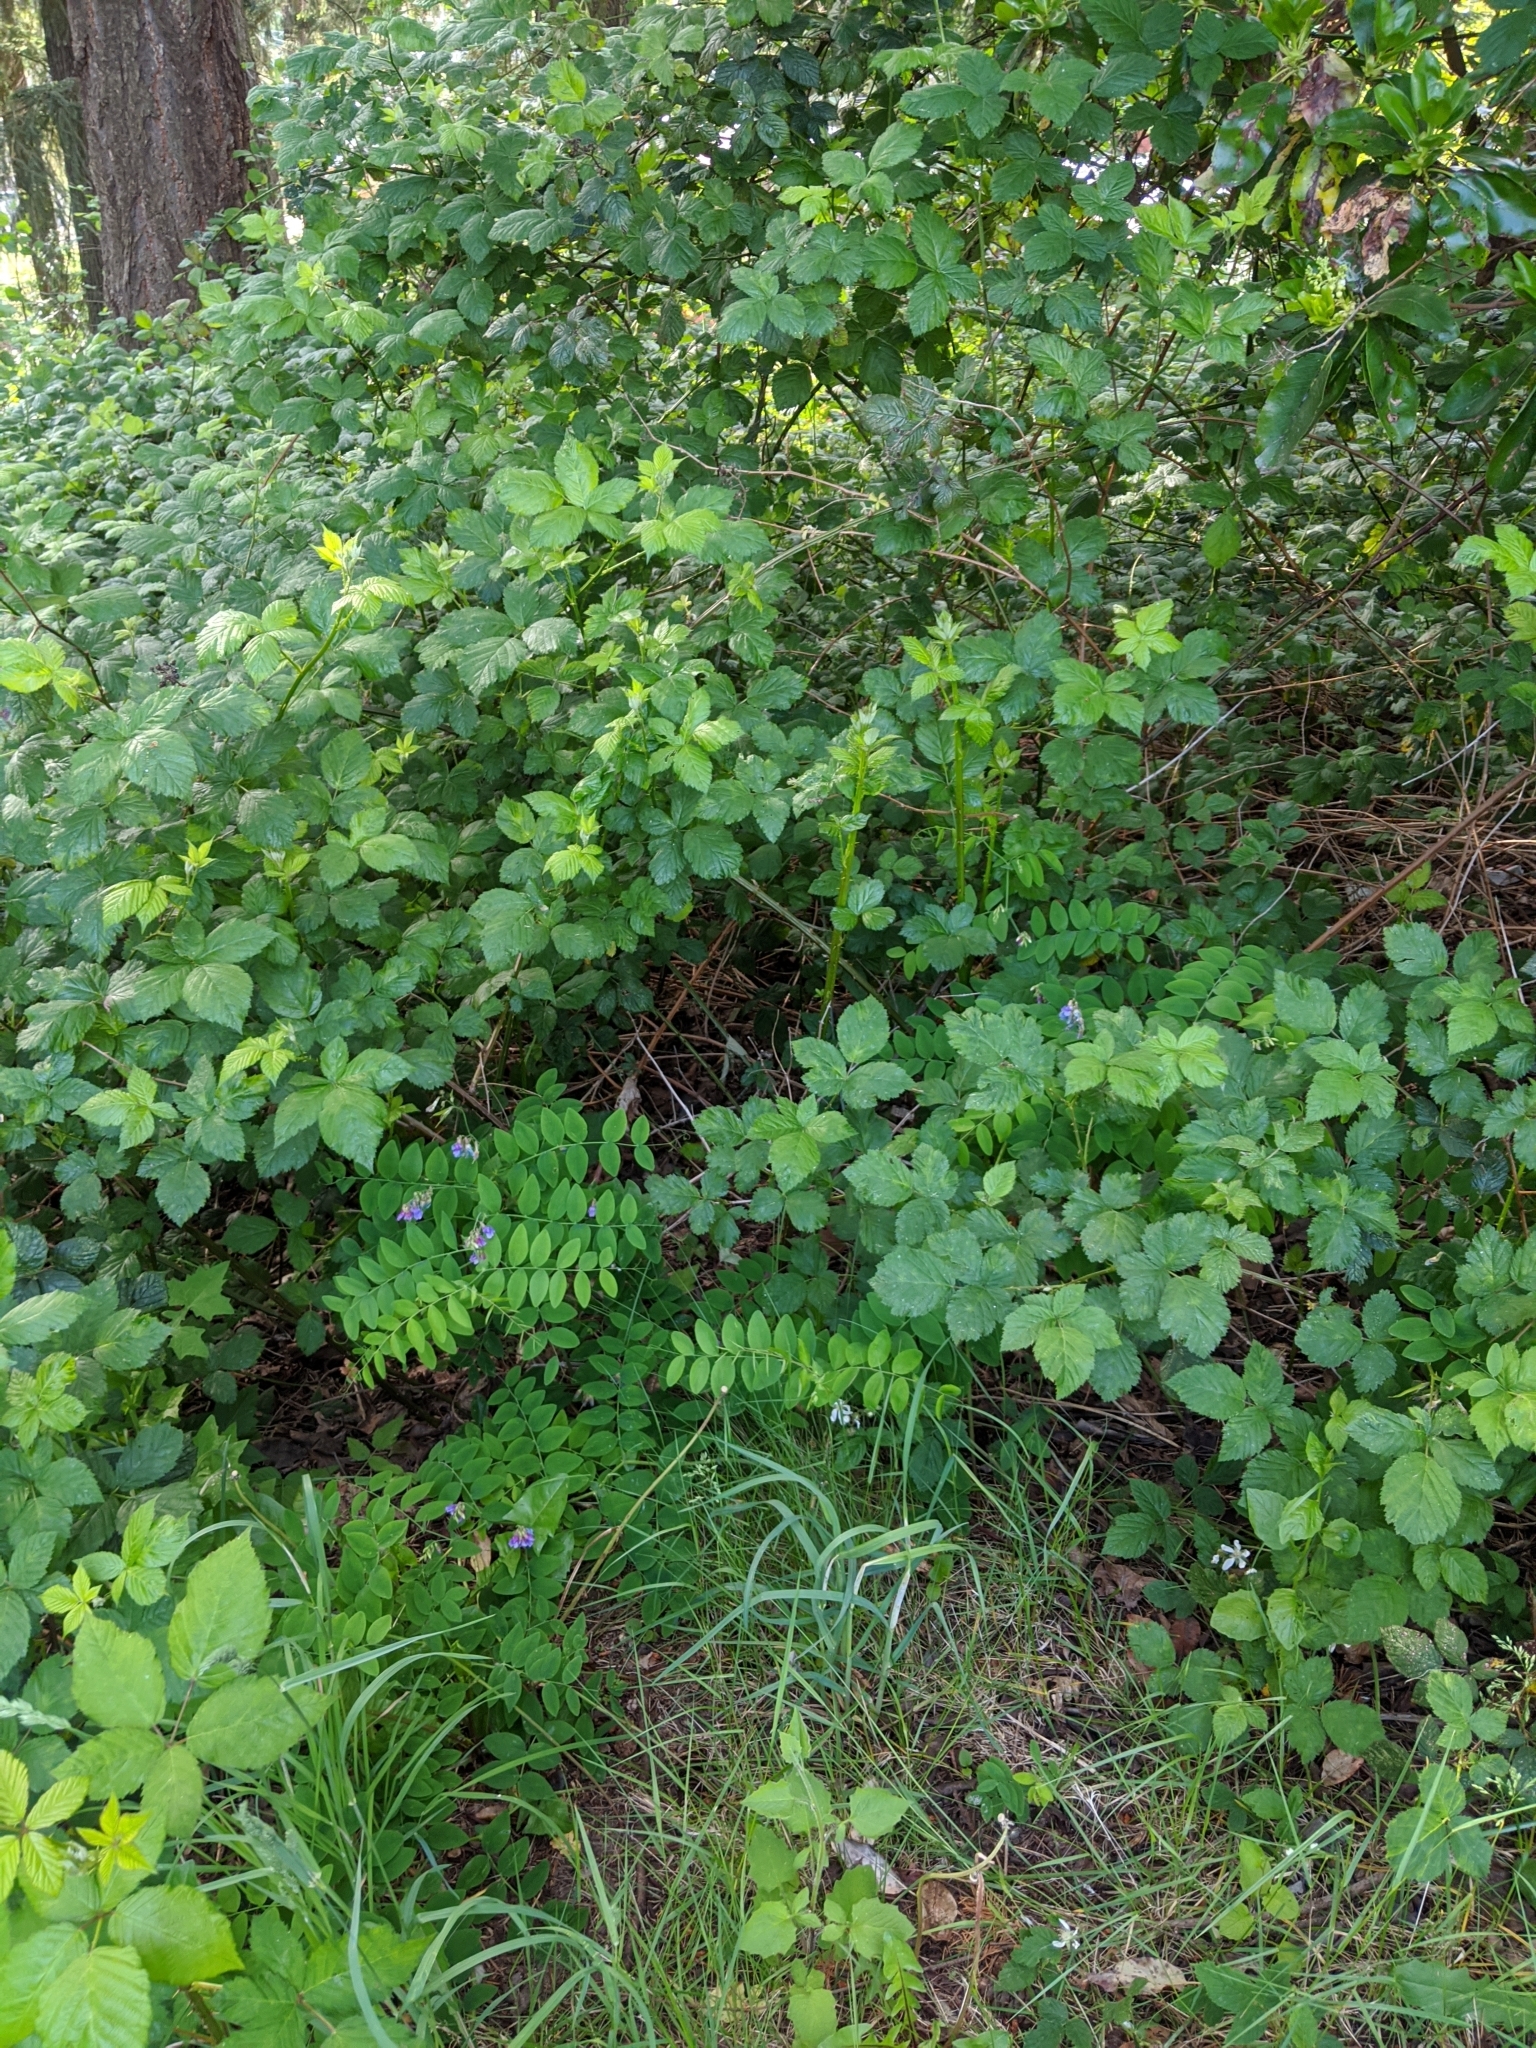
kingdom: Plantae
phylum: Tracheophyta
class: Magnoliopsida
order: Fabales
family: Fabaceae
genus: Lathyrus
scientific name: Lathyrus polyphyllus
